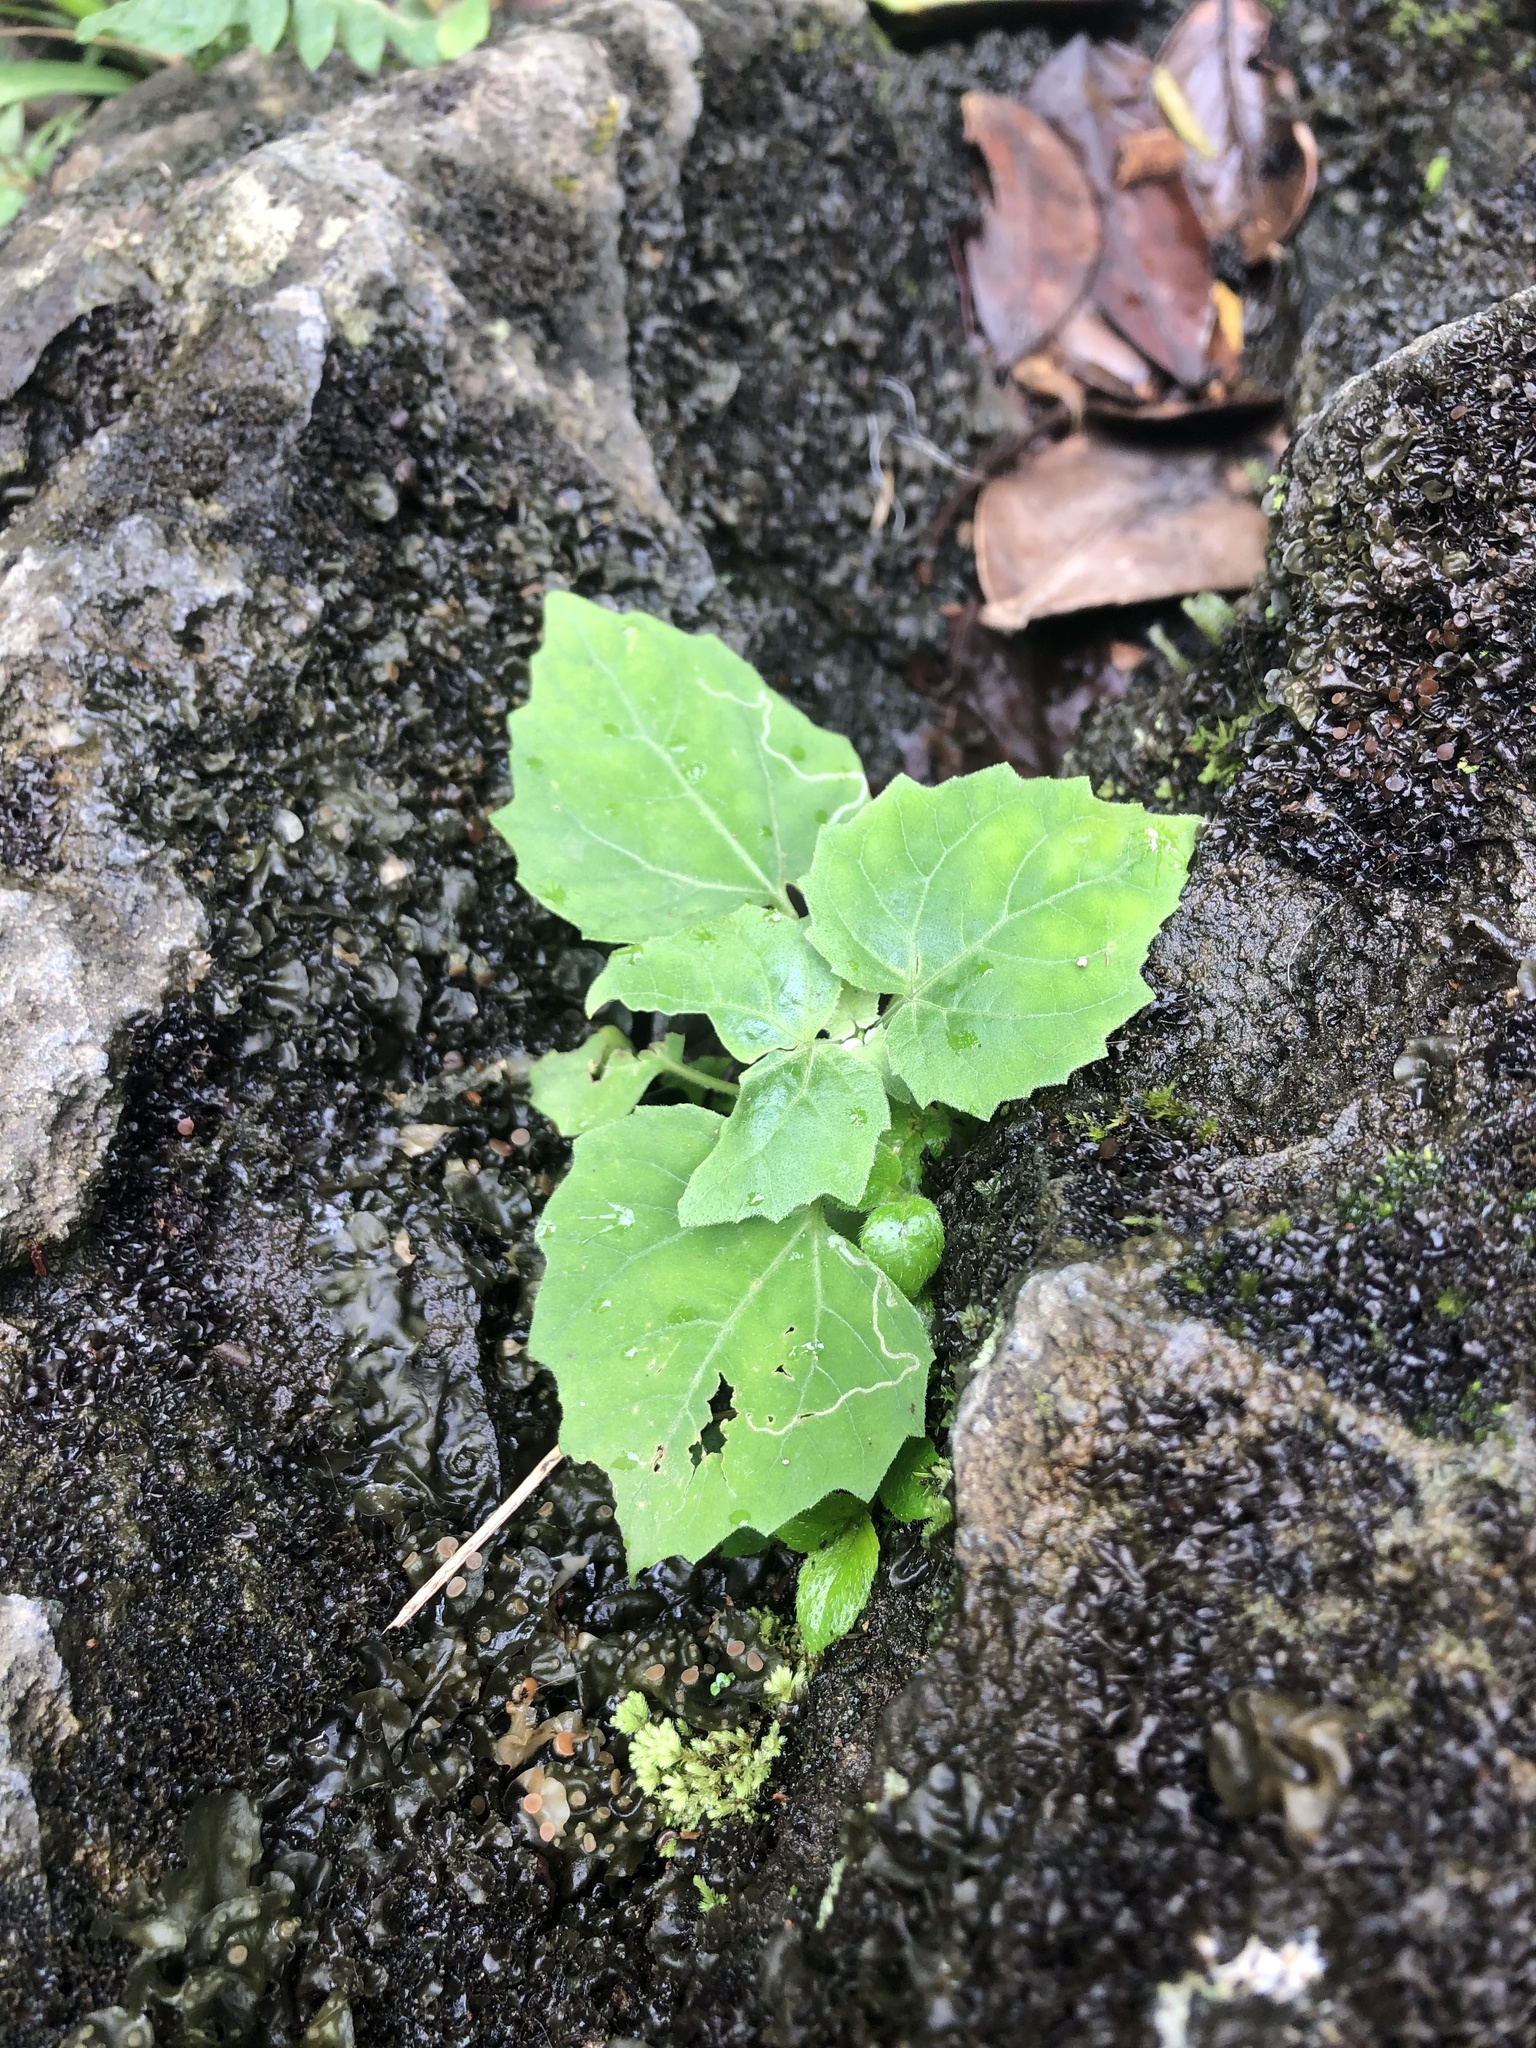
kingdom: Plantae
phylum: Tracheophyta
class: Magnoliopsida
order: Asterales
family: Asteraceae
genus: Mikania
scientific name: Mikania cordifolia
